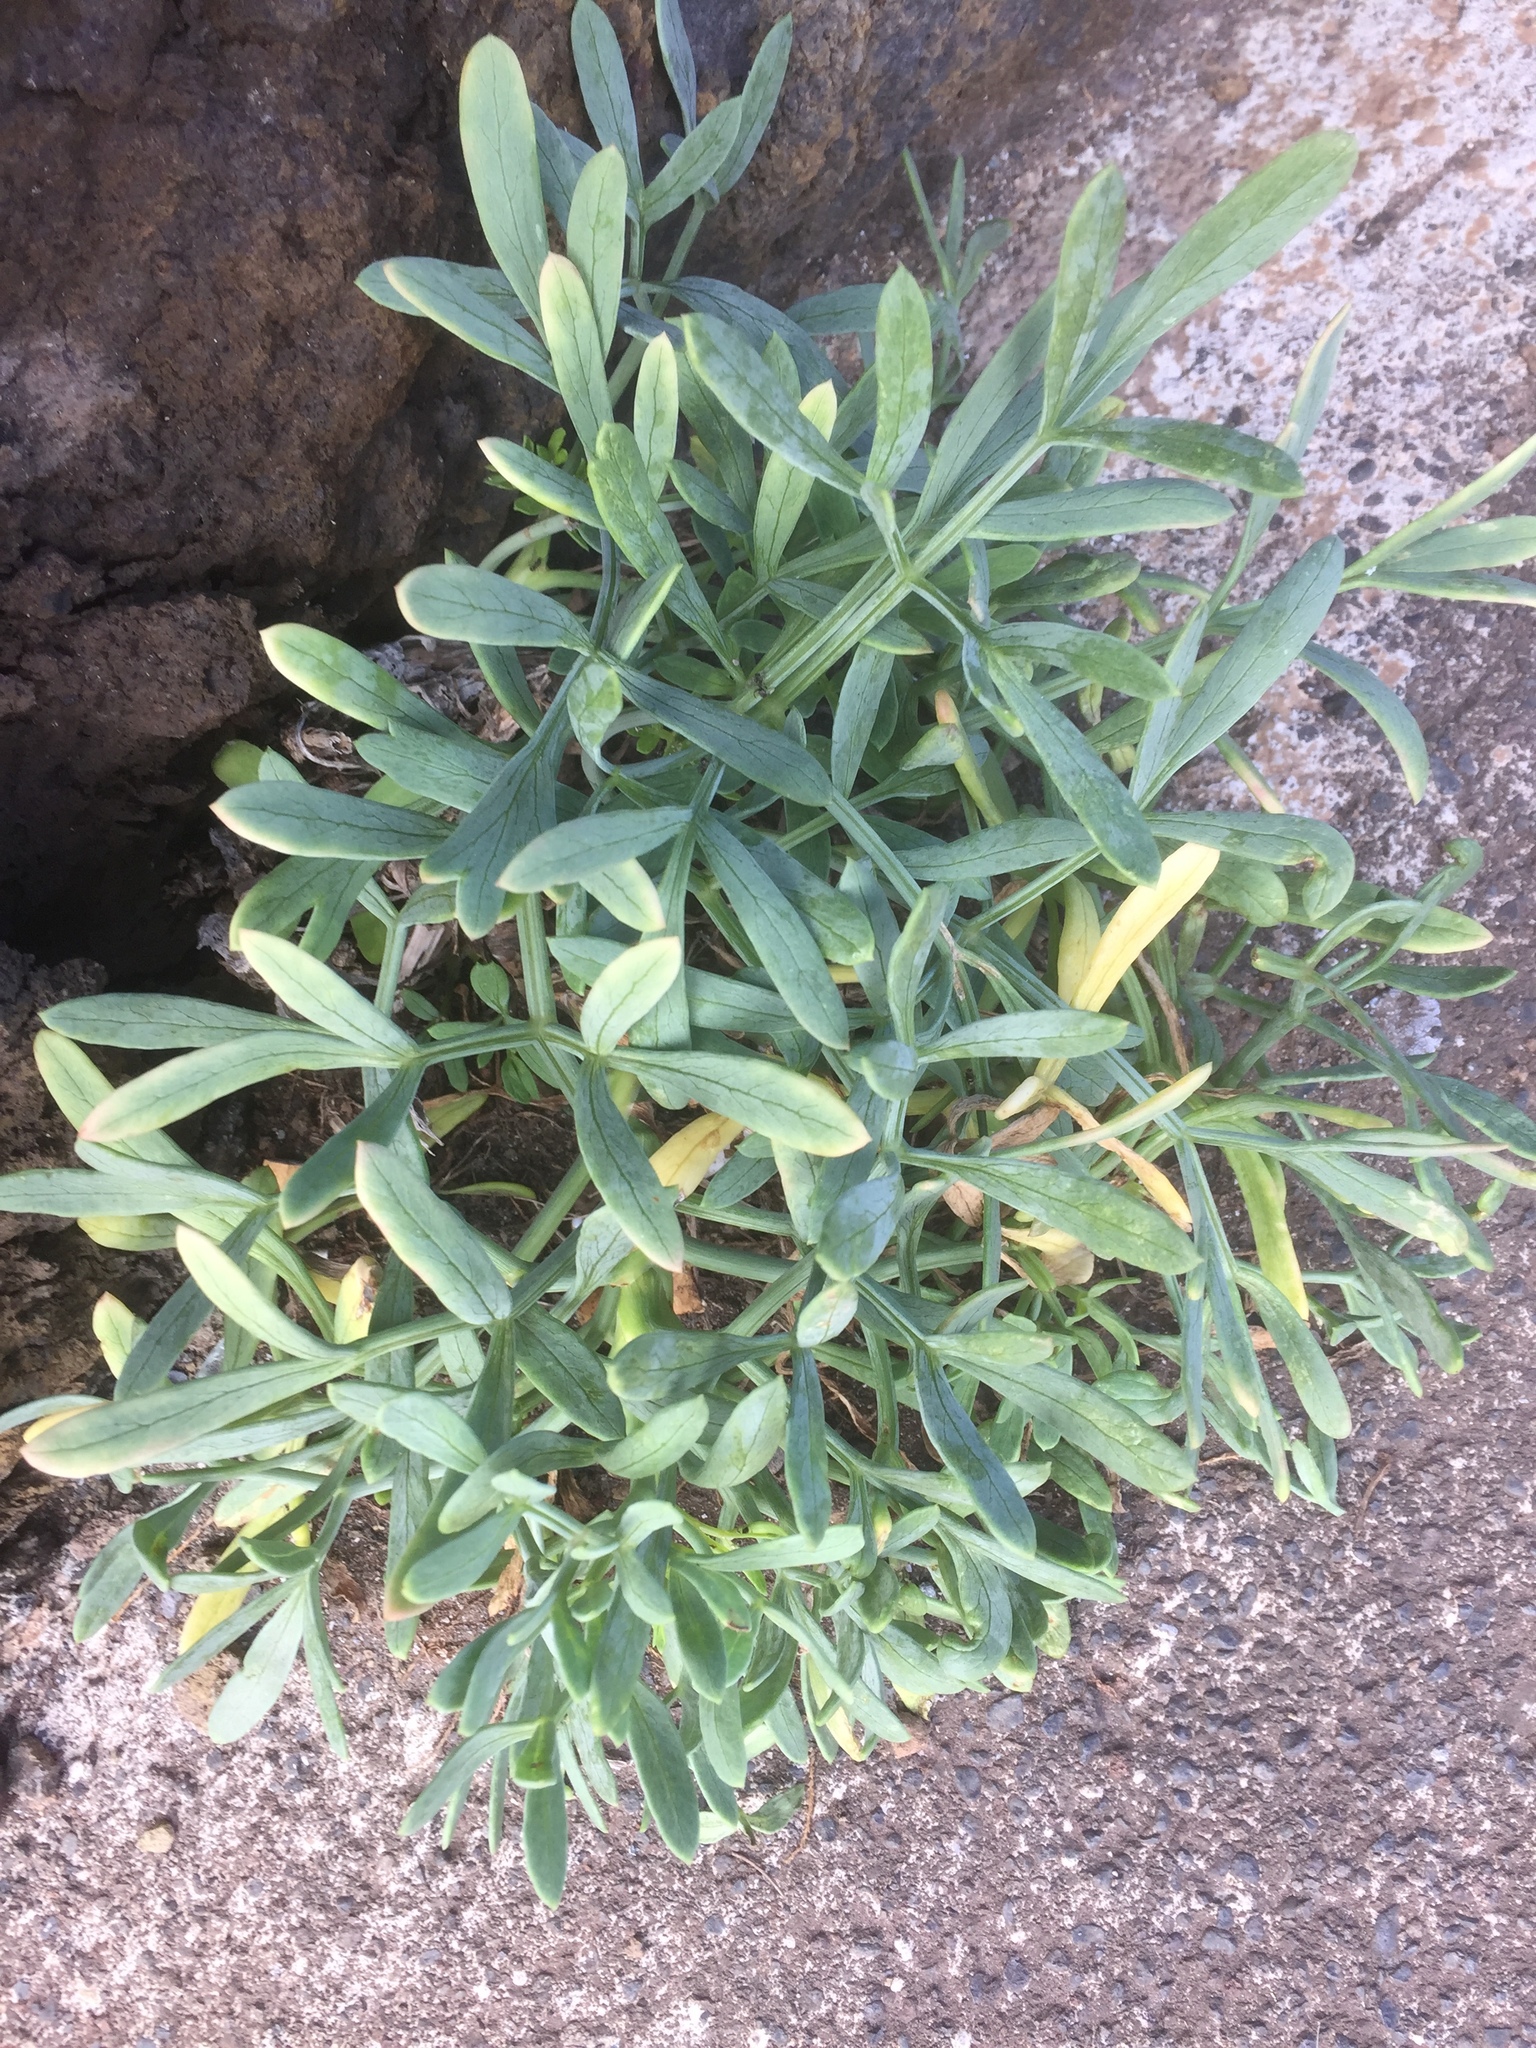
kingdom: Plantae
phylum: Tracheophyta
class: Magnoliopsida
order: Apiales
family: Apiaceae
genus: Crithmum
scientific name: Crithmum maritimum
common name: Rock samphire
